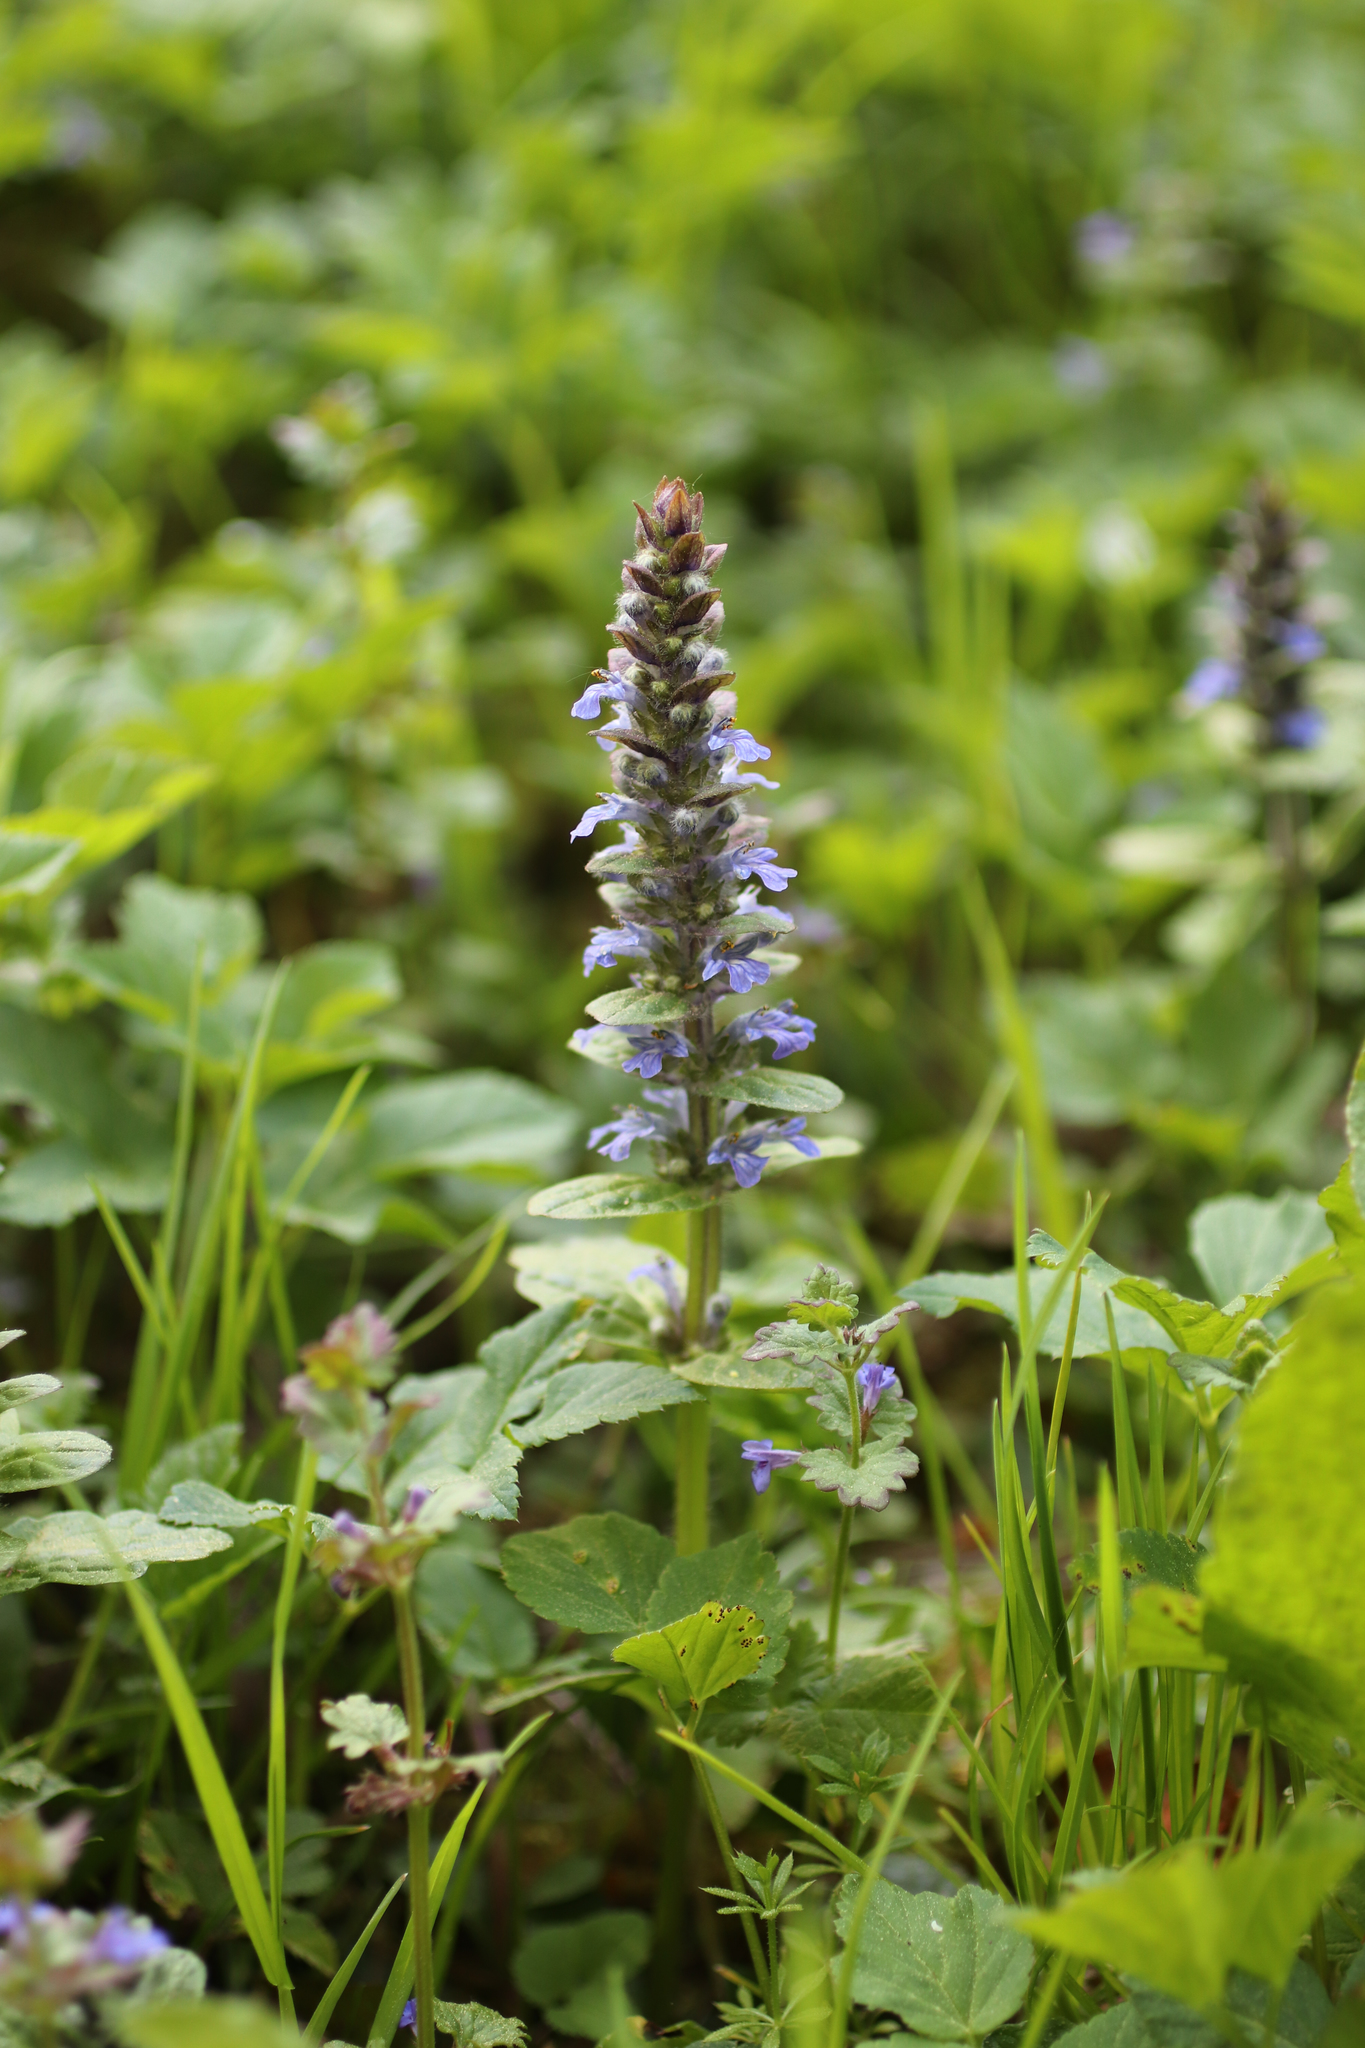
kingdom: Plantae
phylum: Tracheophyta
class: Magnoliopsida
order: Lamiales
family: Lamiaceae
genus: Ajuga
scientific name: Ajuga reptans
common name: Bugle
